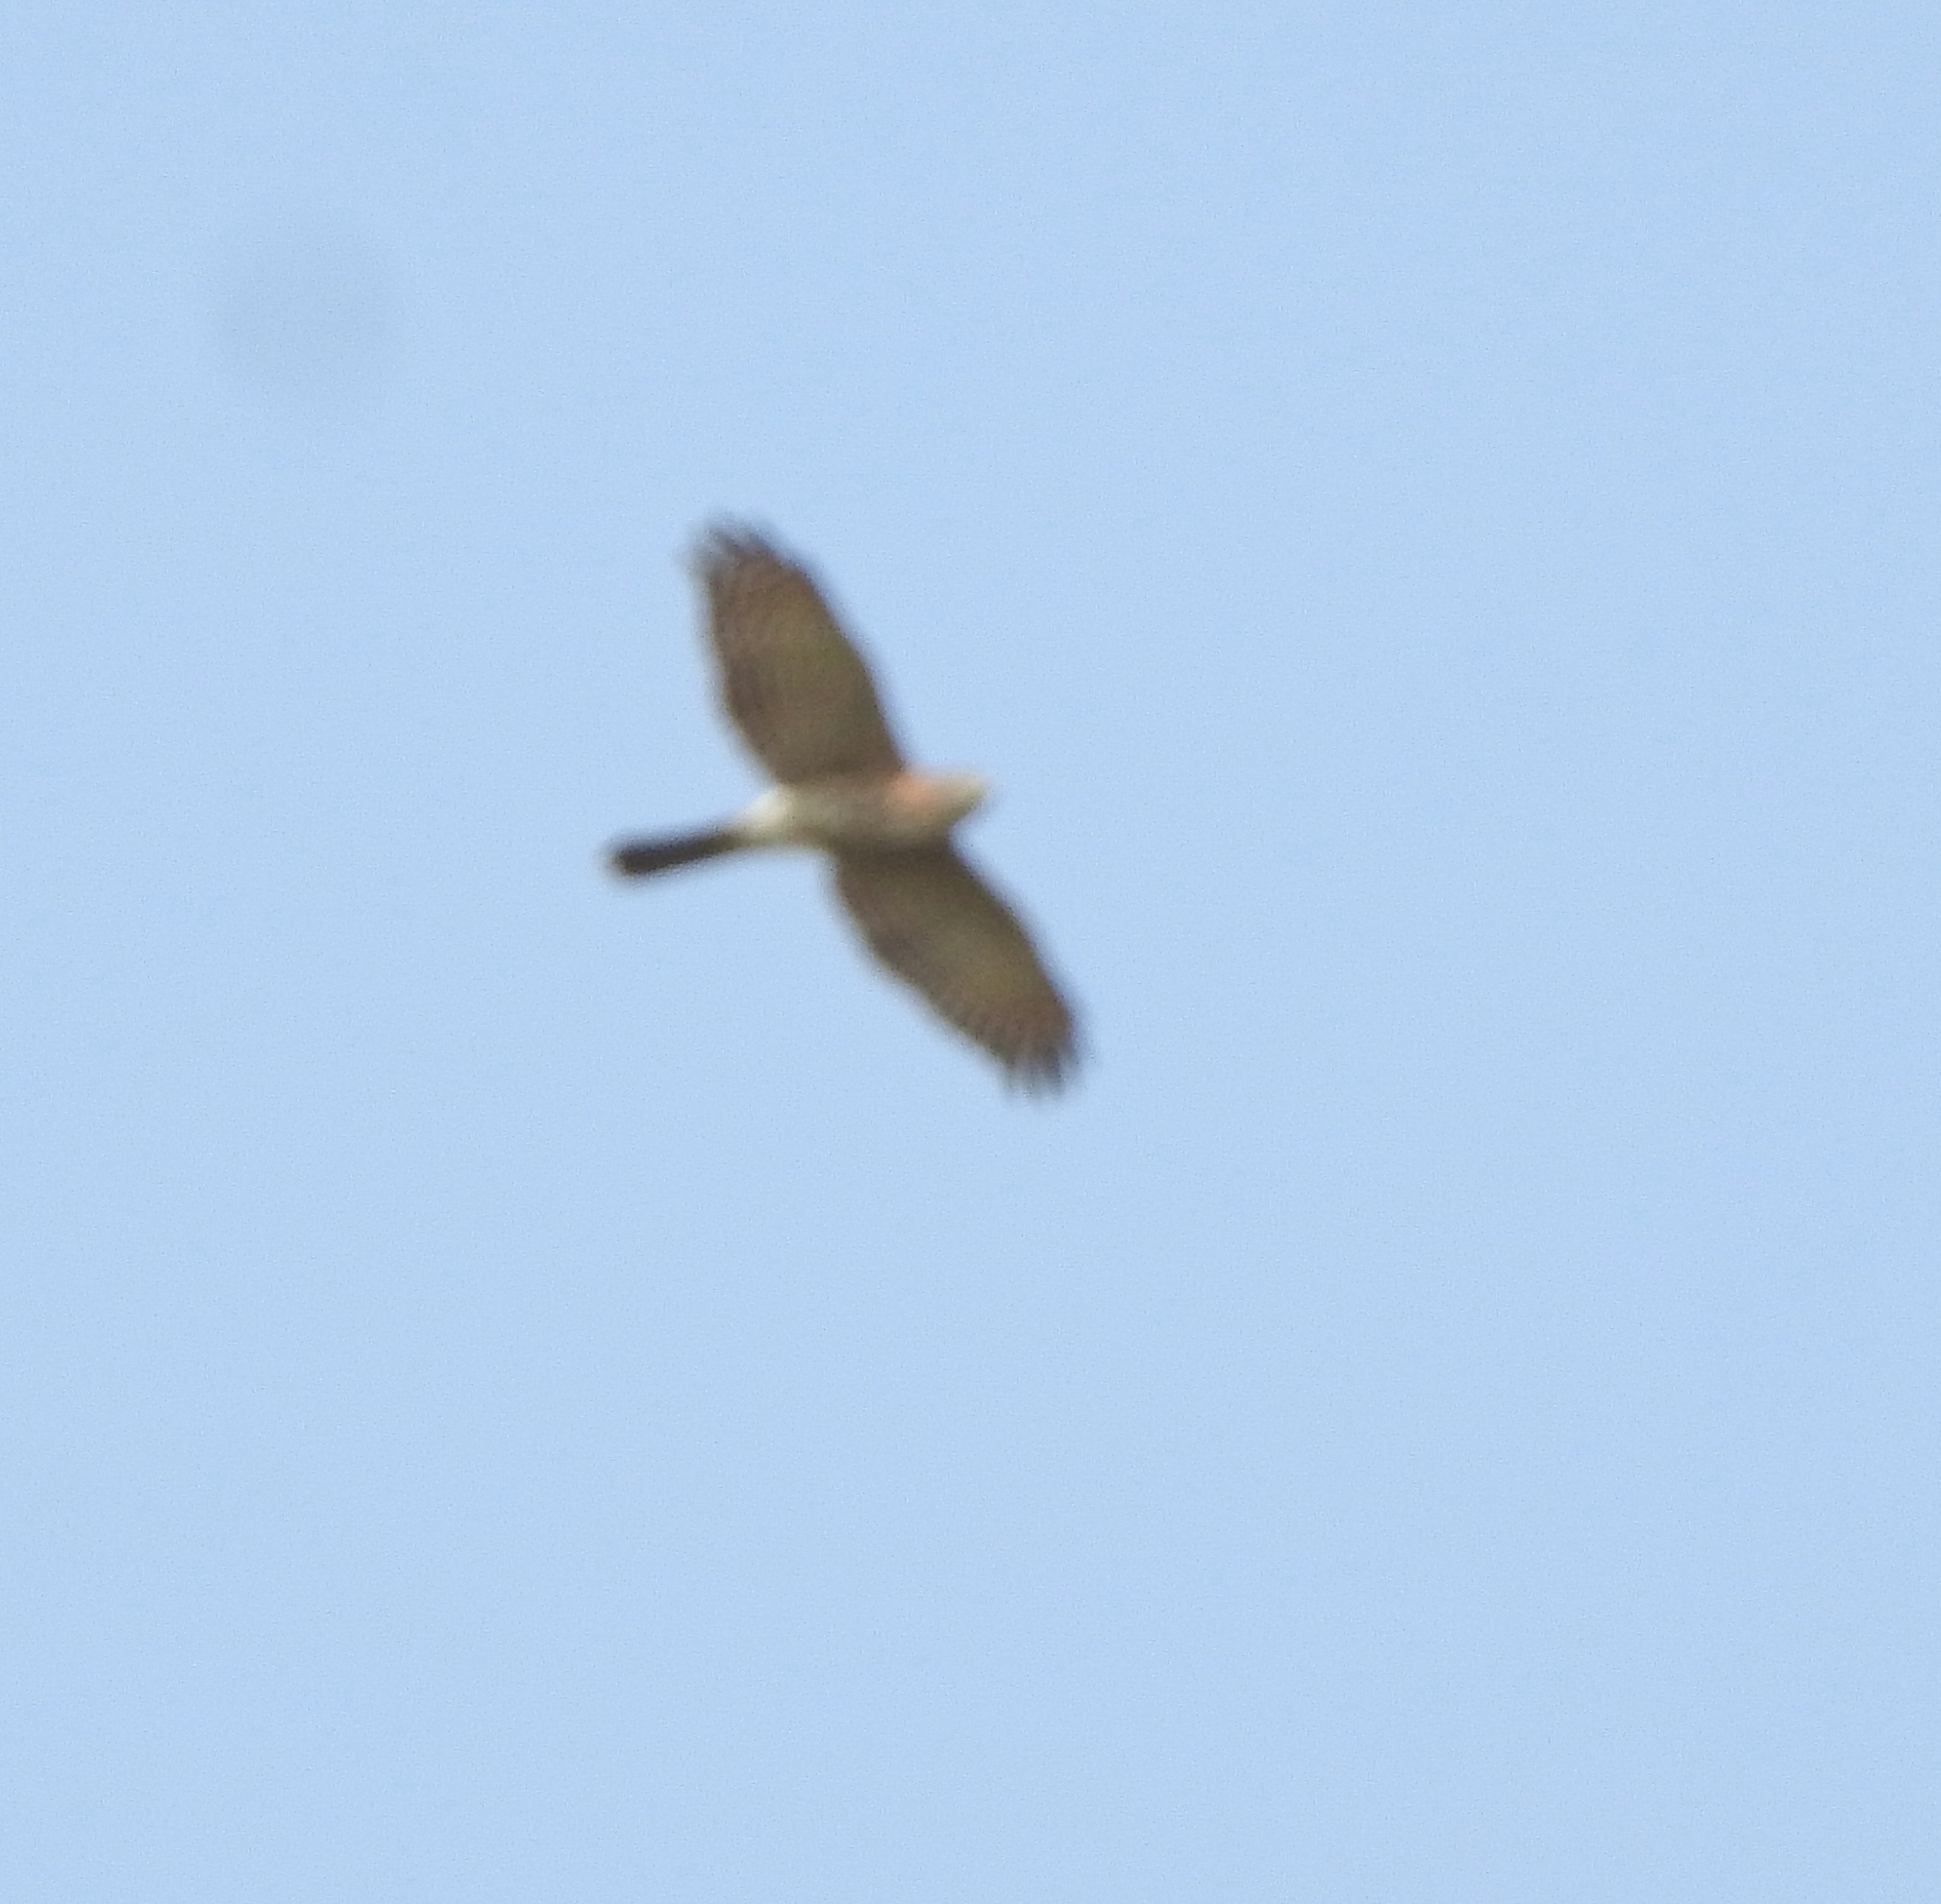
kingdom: Animalia
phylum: Chordata
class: Aves
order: Accipitriformes
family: Accipitridae
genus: Accipiter
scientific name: Accipiter badius
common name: Shikra
